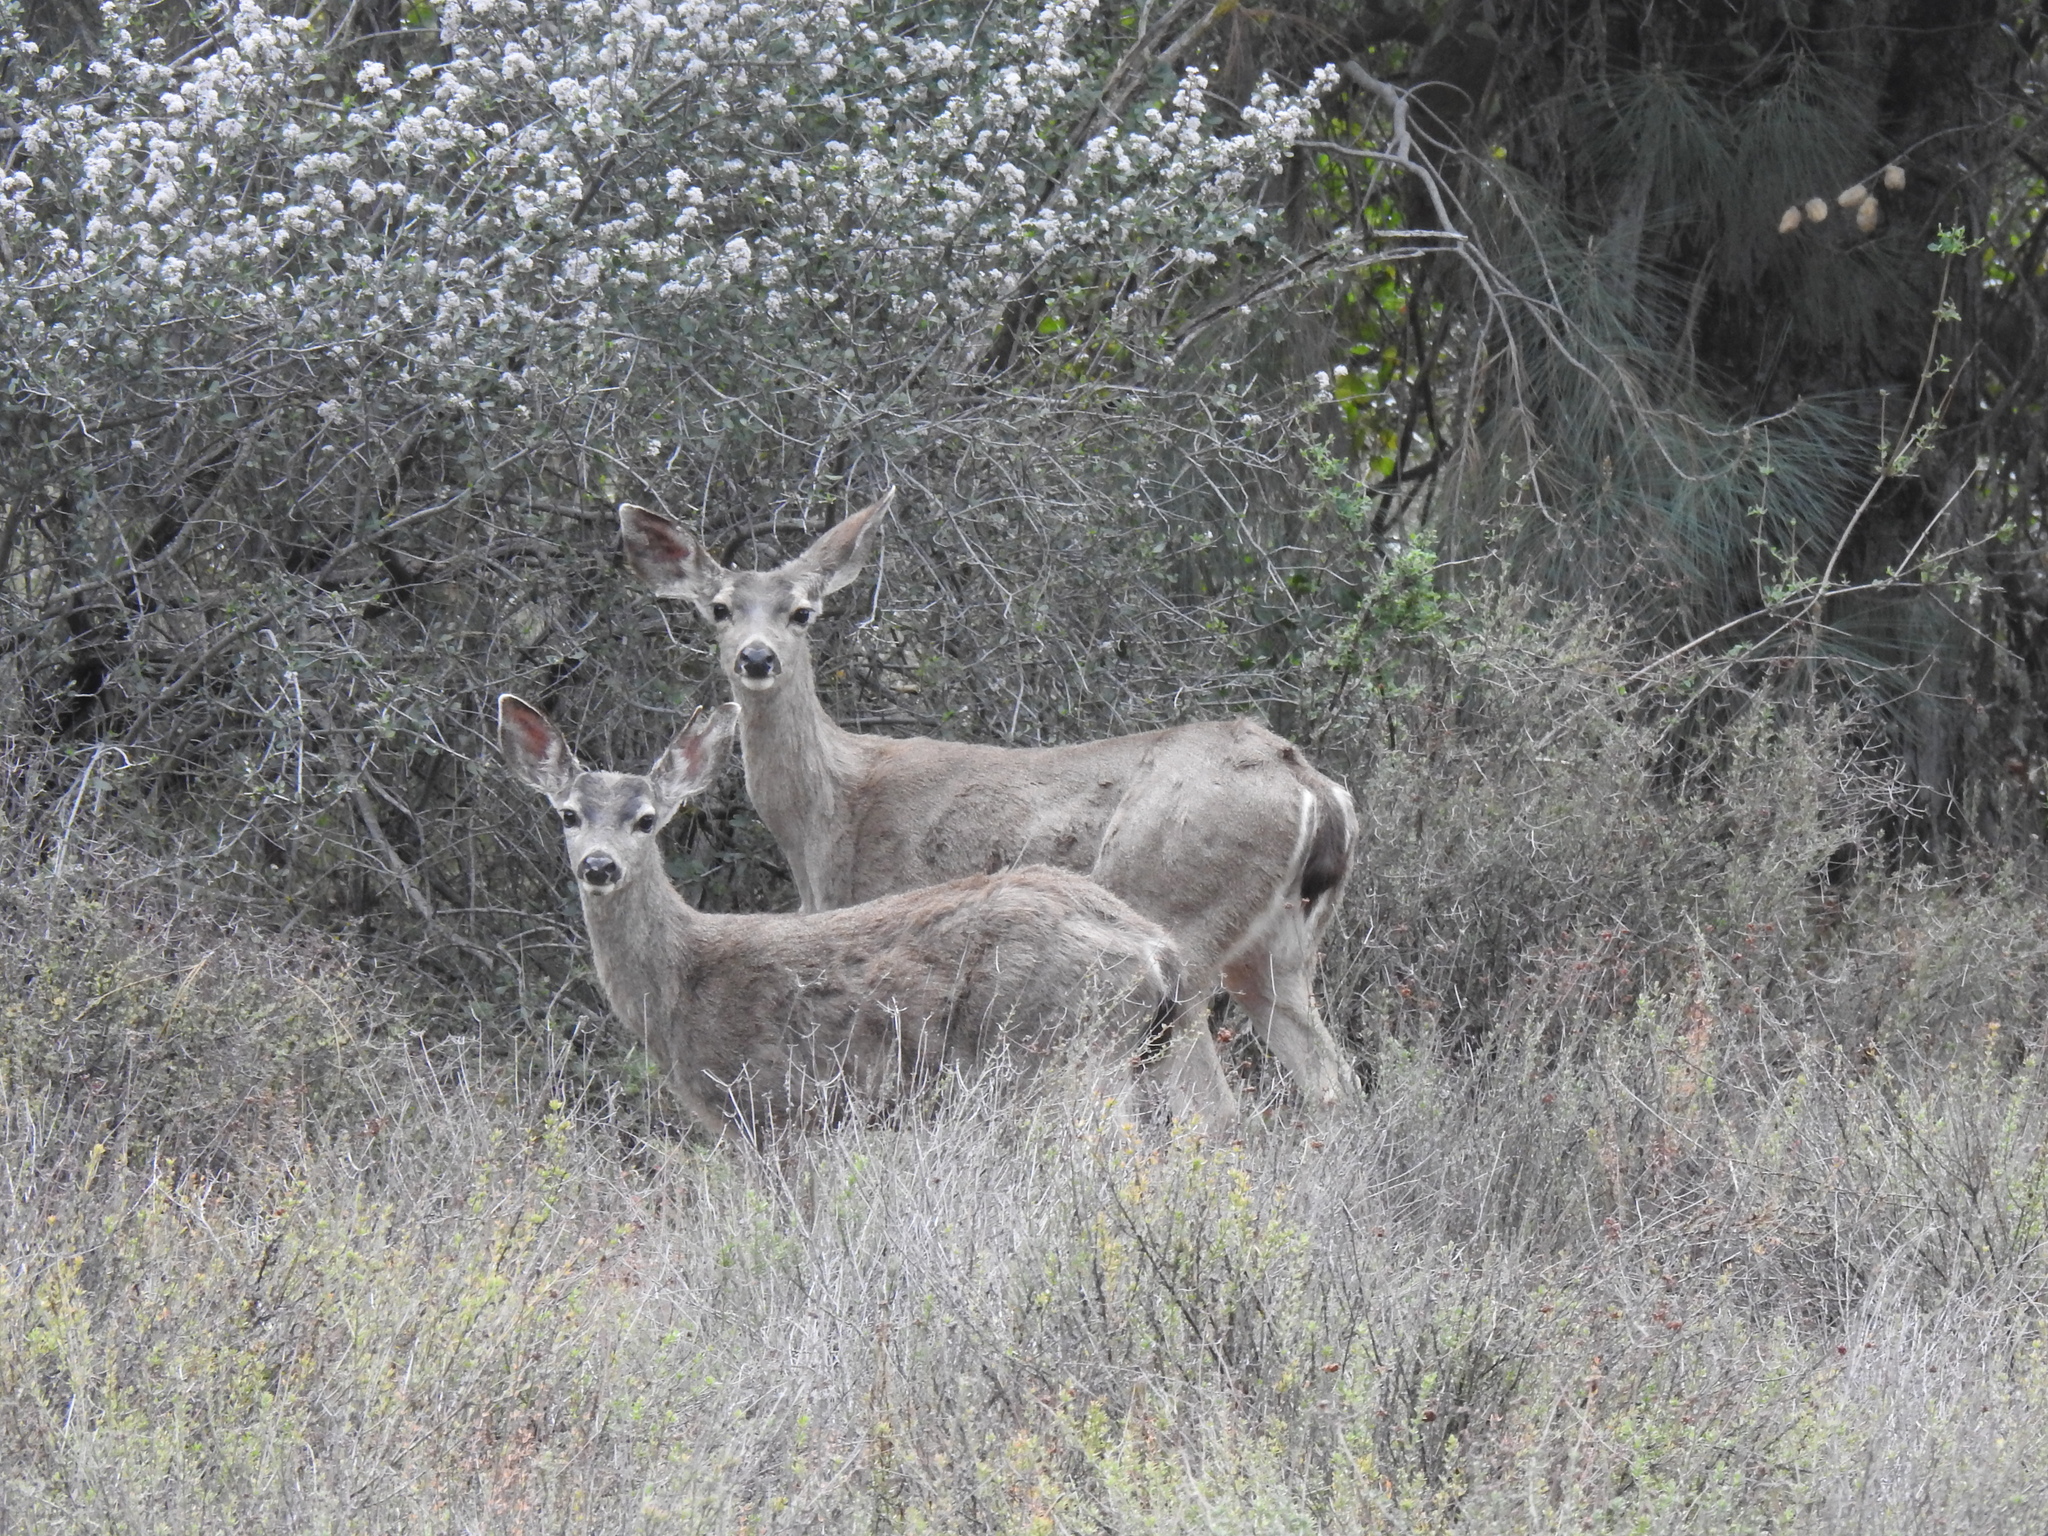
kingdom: Animalia
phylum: Chordata
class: Mammalia
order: Artiodactyla
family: Cervidae
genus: Odocoileus
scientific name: Odocoileus hemionus
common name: Mule deer
